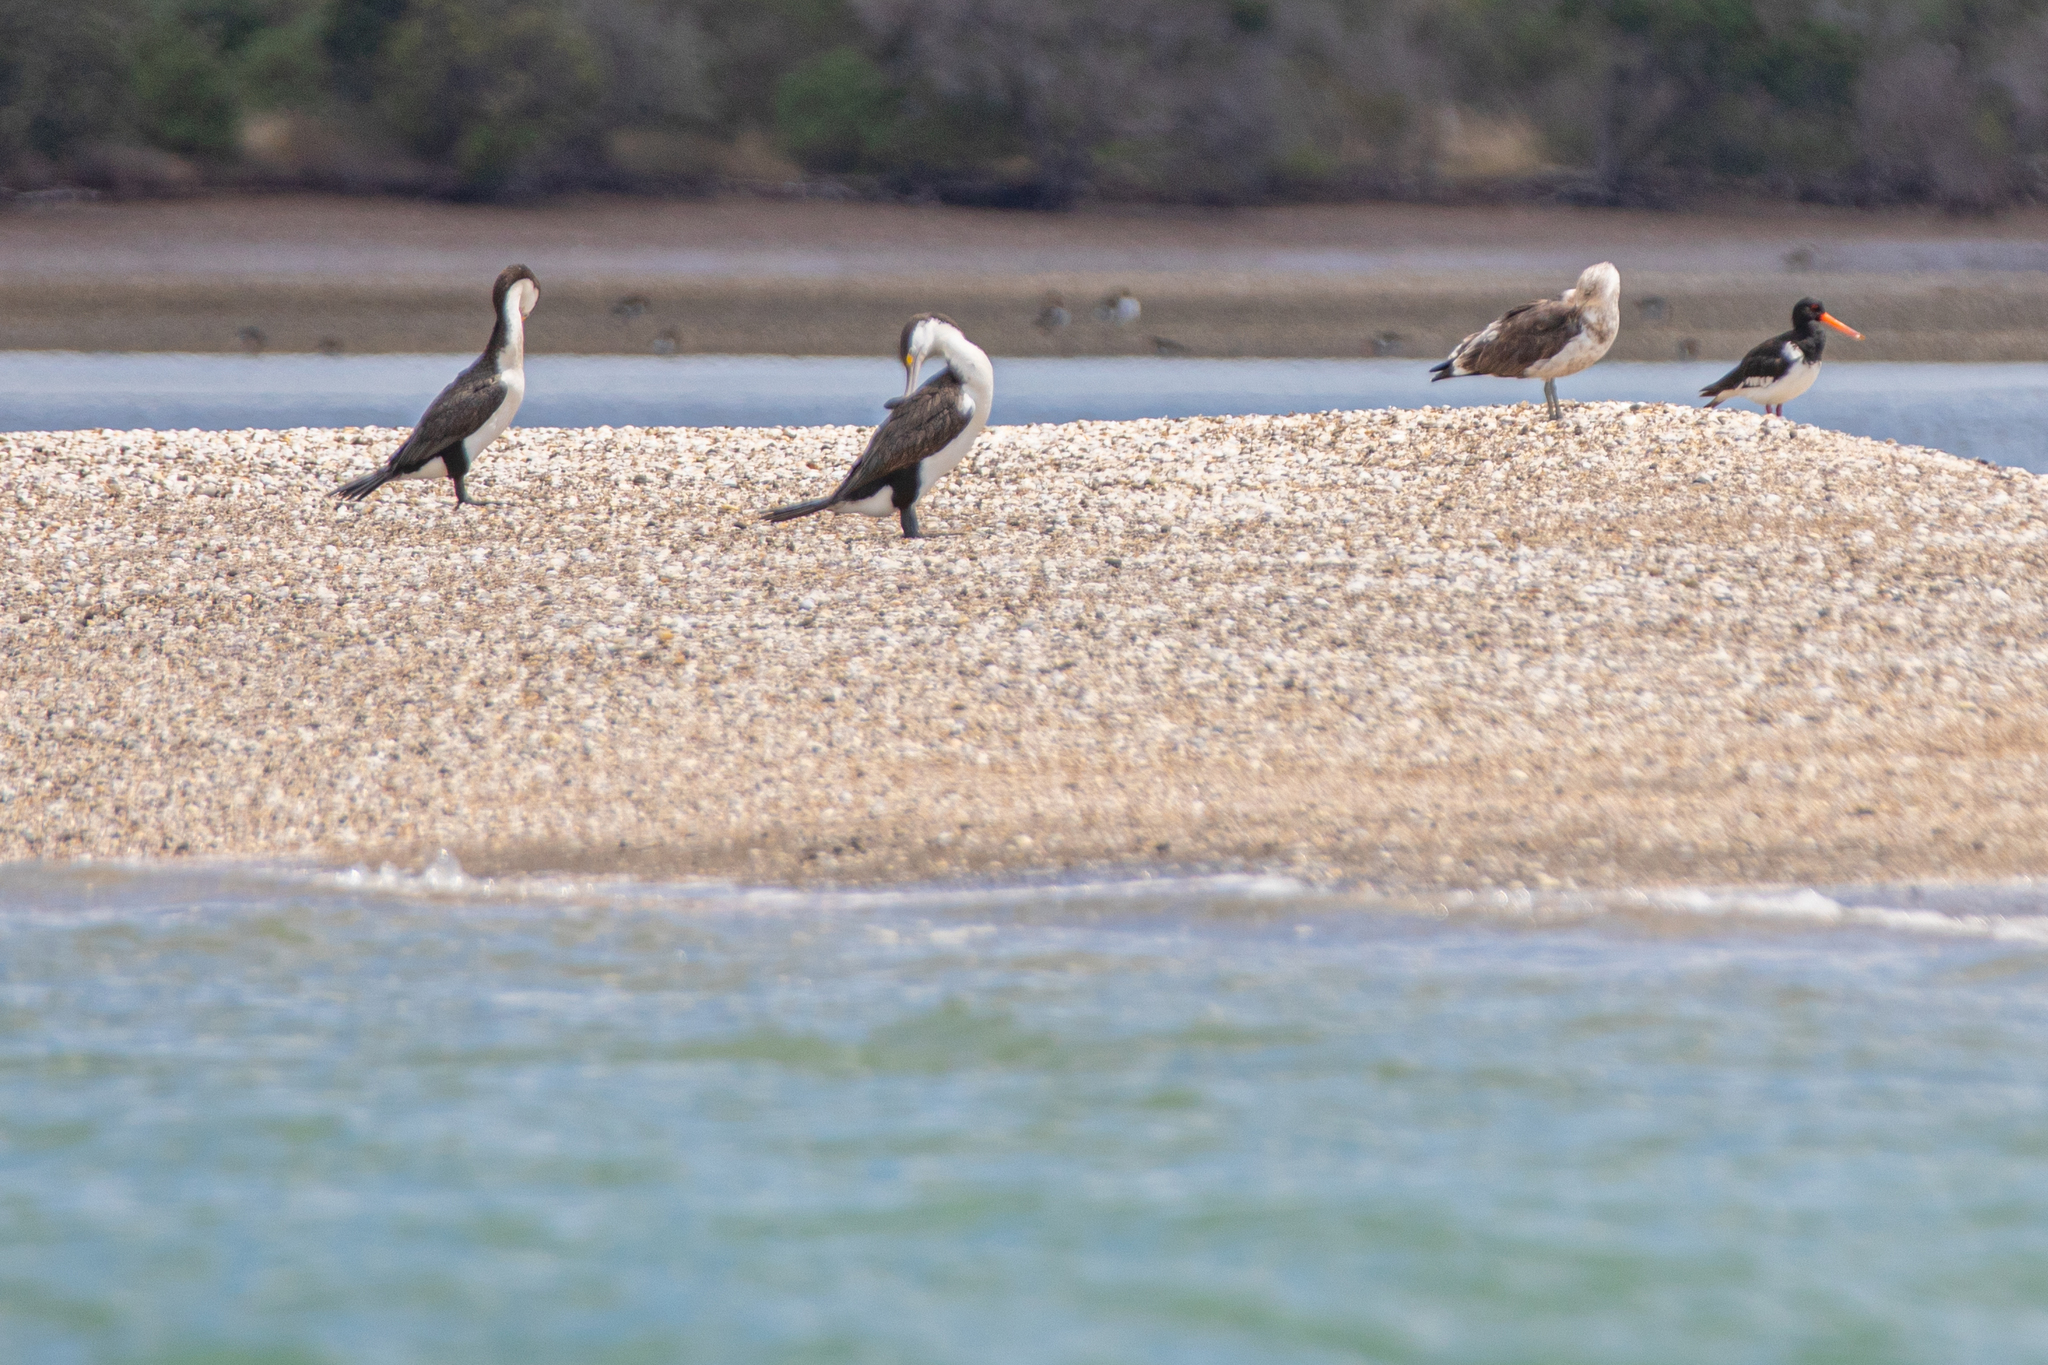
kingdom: Animalia
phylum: Chordata
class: Aves
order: Suliformes
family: Phalacrocoracidae
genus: Phalacrocorax
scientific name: Phalacrocorax varius
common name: Pied cormorant
